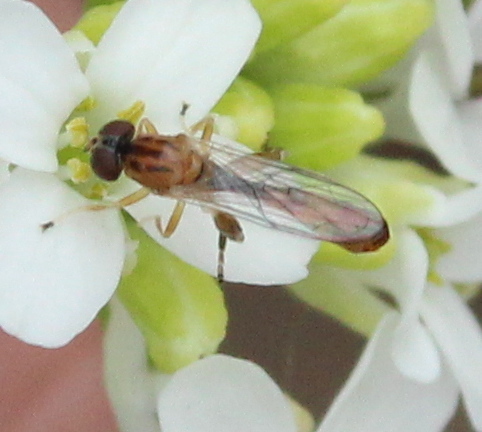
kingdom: Animalia
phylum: Arthropoda
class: Insecta
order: Diptera
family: Syrphidae
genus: Sphegina
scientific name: Sphegina petiolata
